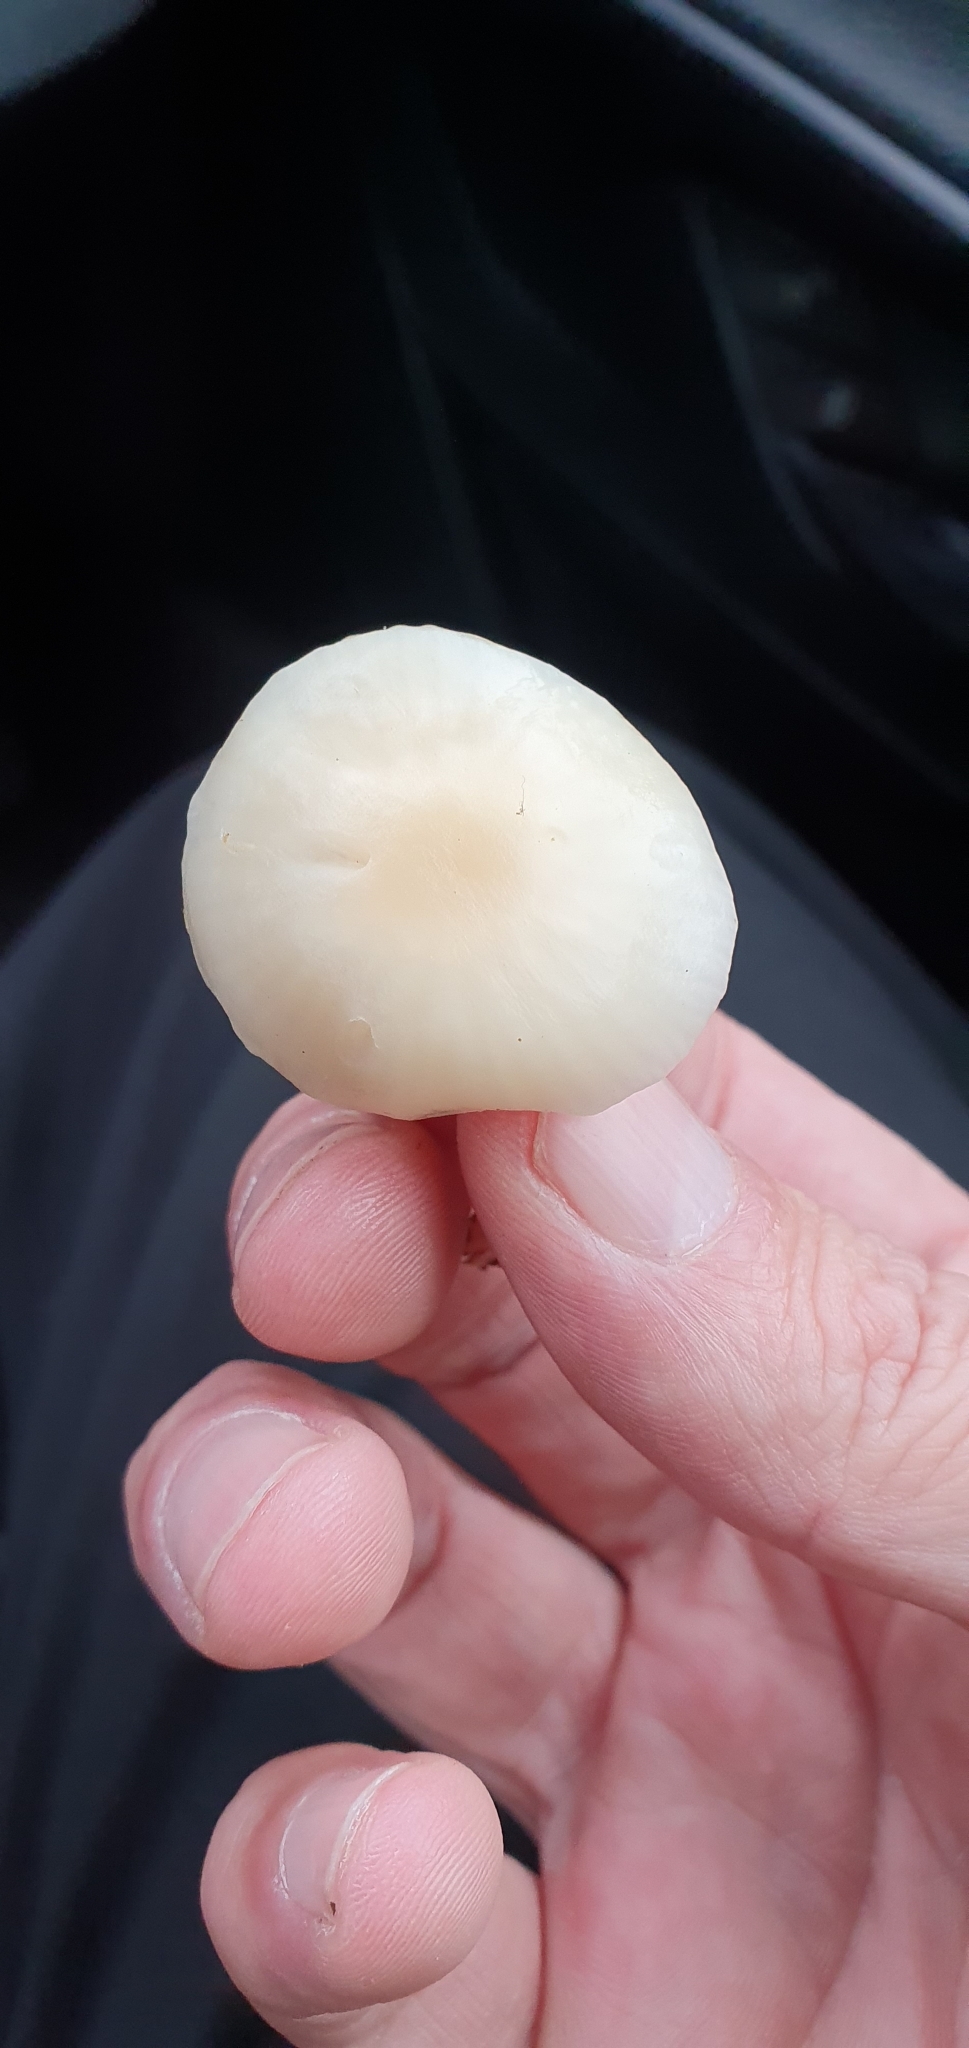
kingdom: Fungi
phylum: Basidiomycota
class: Agaricomycetes
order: Agaricales
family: Hygrophoraceae
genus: Cuphophyllus
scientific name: Cuphophyllus virgineus
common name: Snowy waxcap
